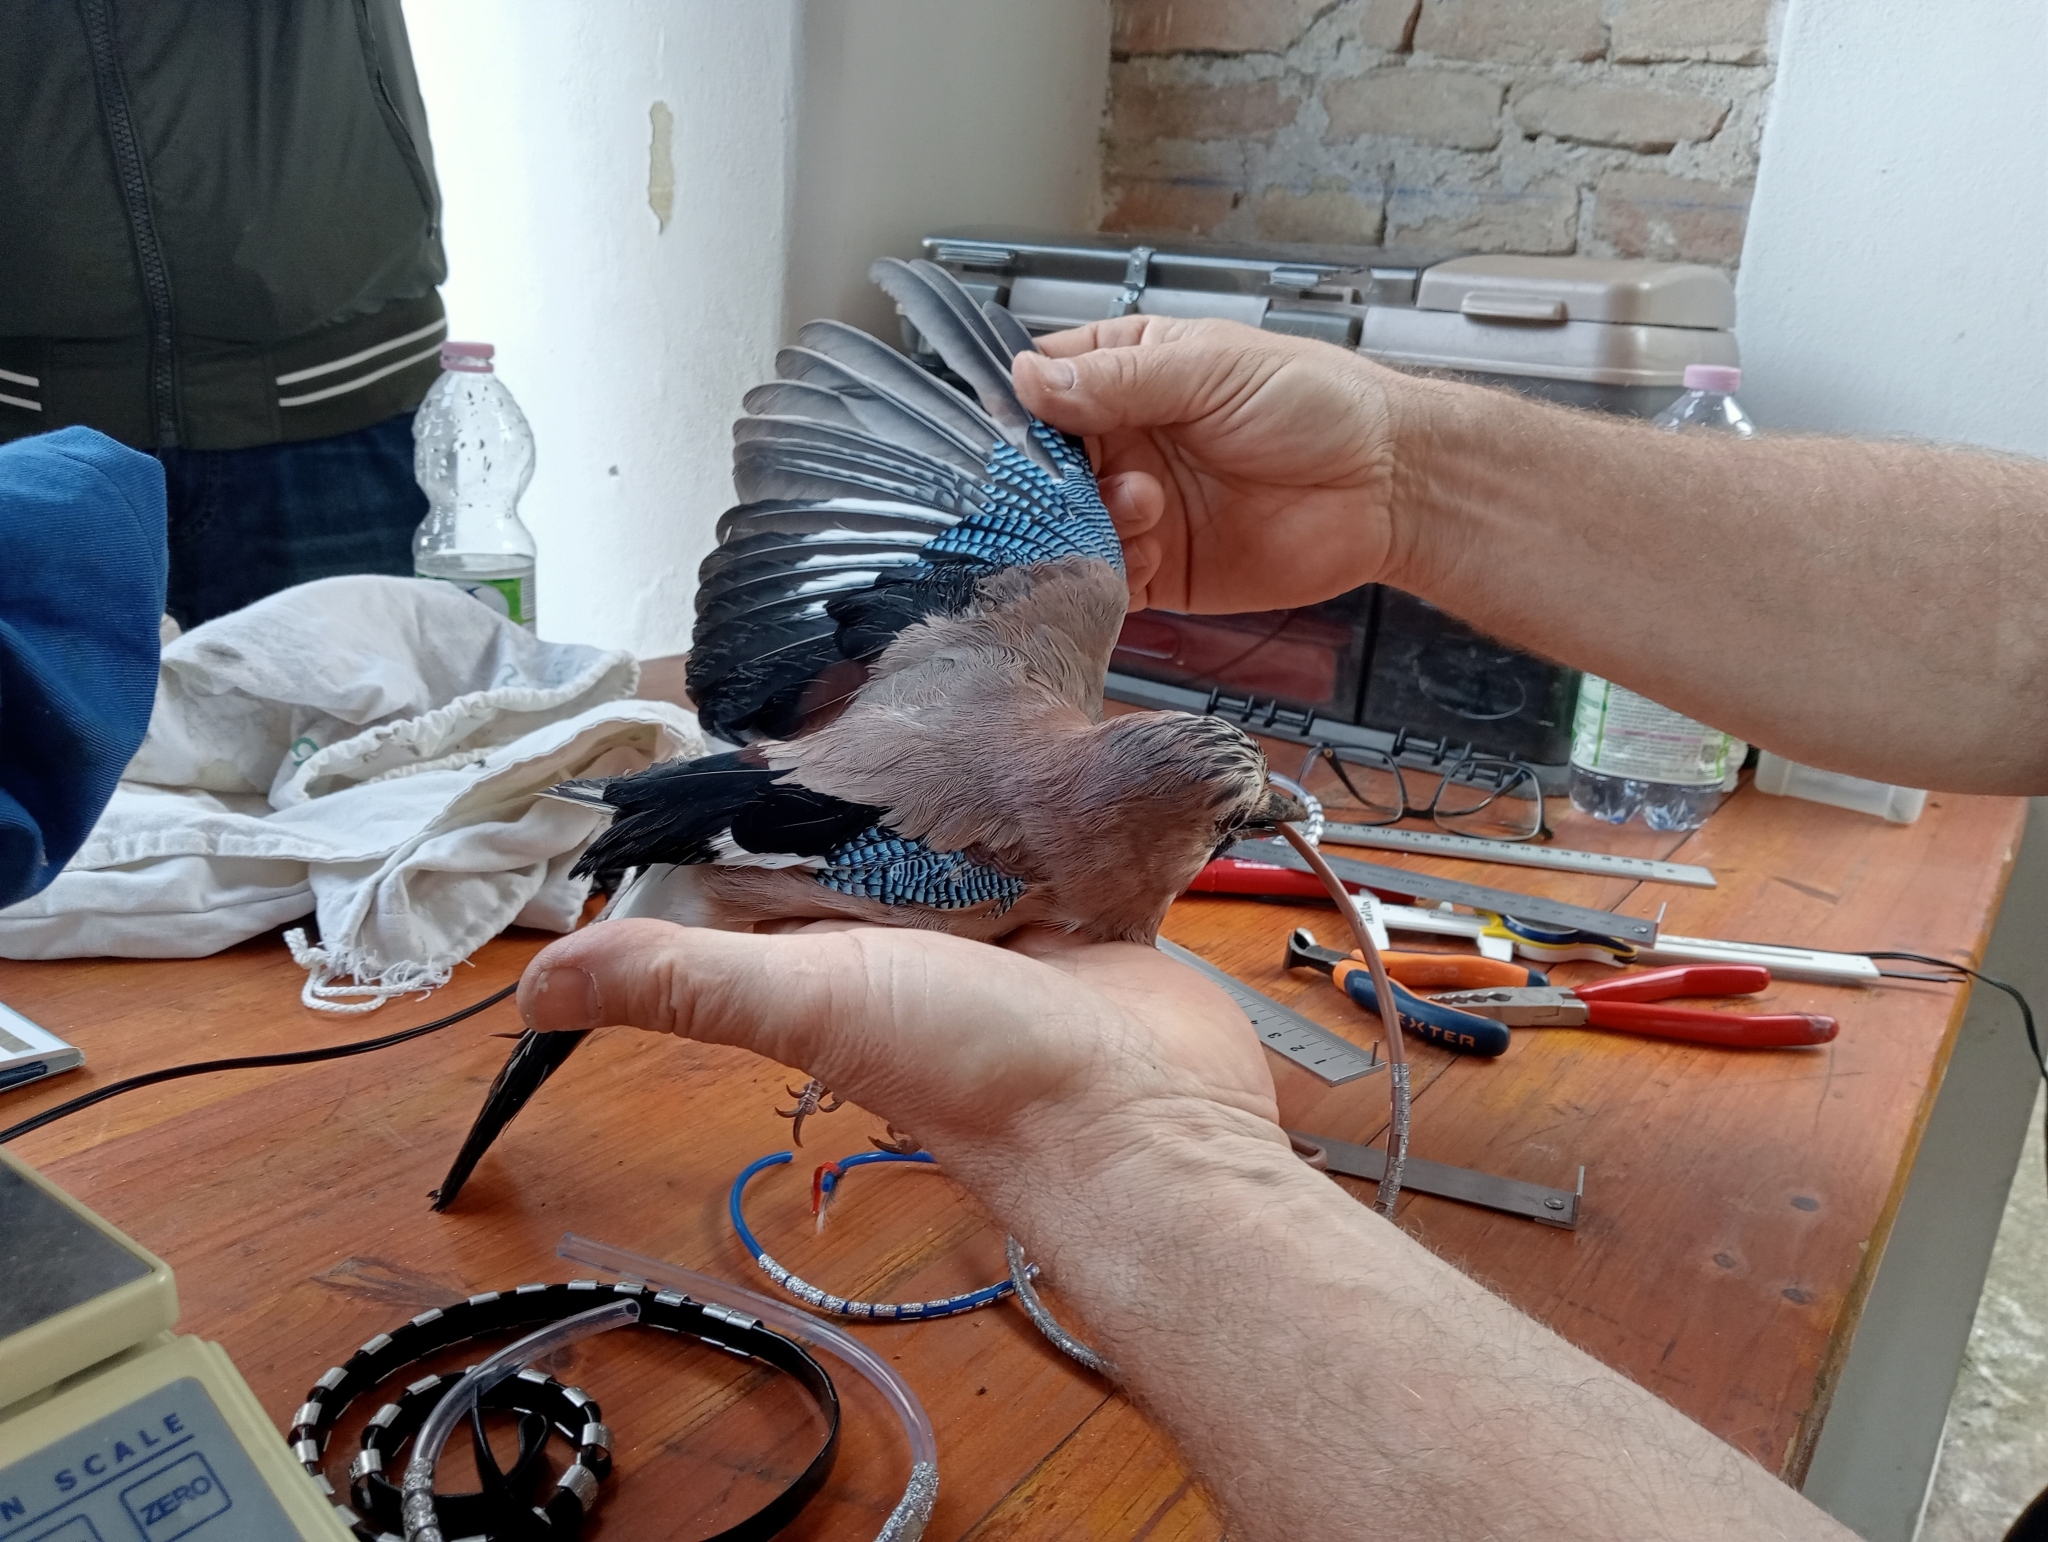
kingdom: Animalia
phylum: Chordata
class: Aves
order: Passeriformes
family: Corvidae
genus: Garrulus
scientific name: Garrulus glandarius
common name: Eurasian jay
